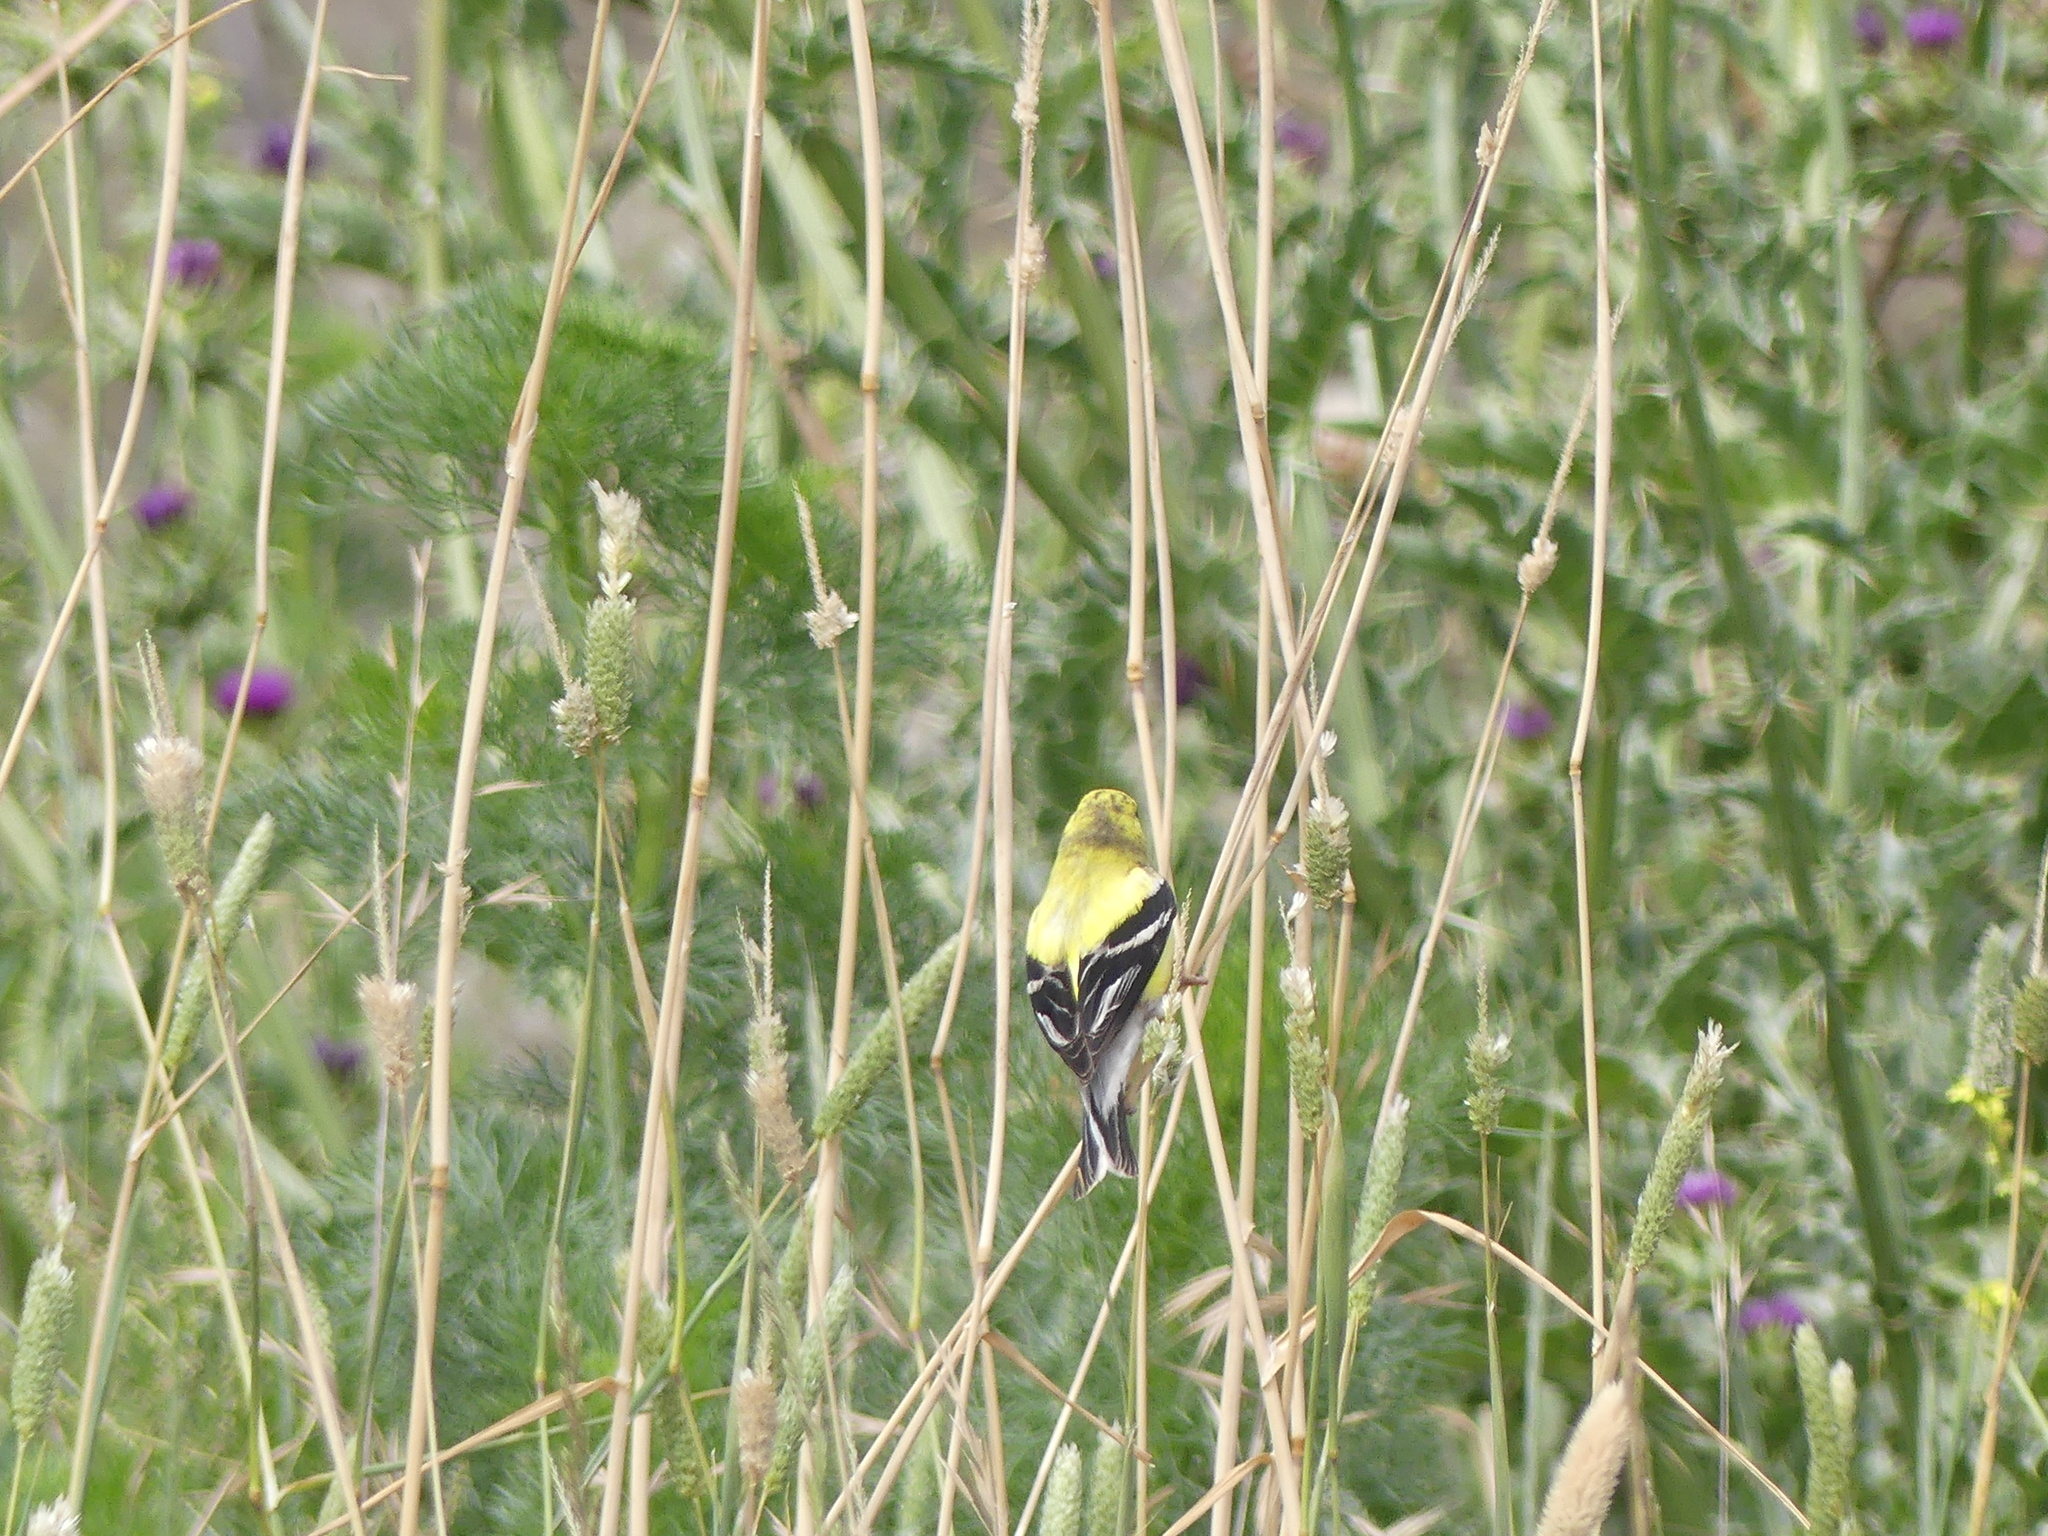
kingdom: Animalia
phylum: Chordata
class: Aves
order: Passeriformes
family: Fringillidae
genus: Spinus
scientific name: Spinus tristis
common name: American goldfinch
